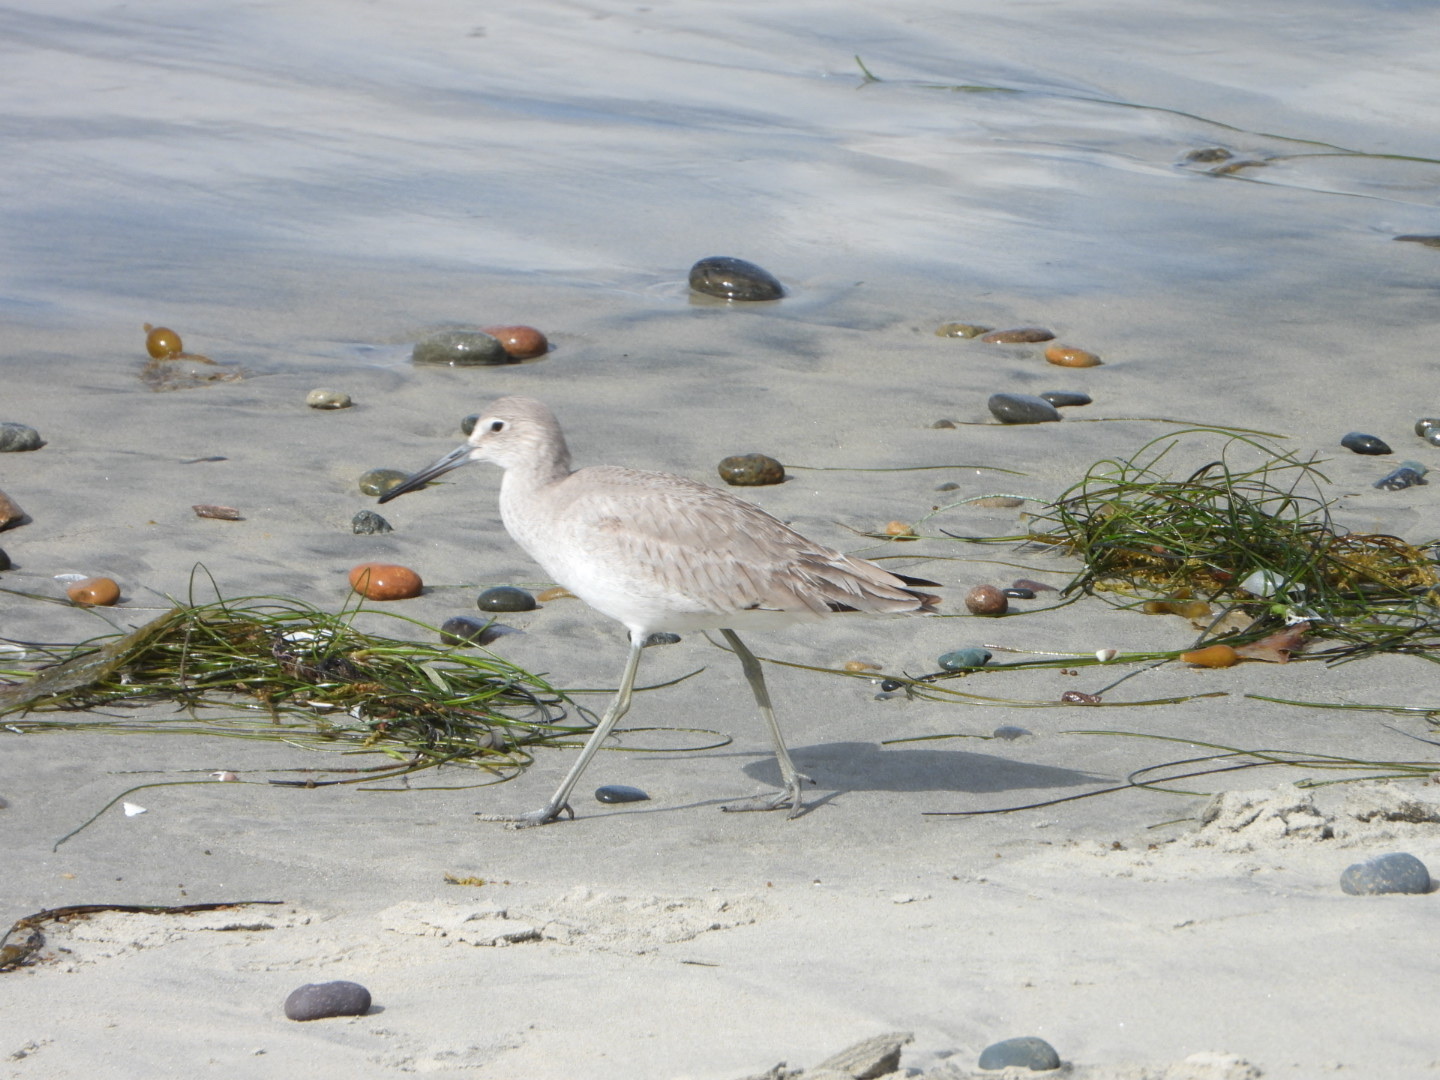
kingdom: Animalia
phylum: Chordata
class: Aves
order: Charadriiformes
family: Scolopacidae
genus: Tringa
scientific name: Tringa semipalmata
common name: Willet
